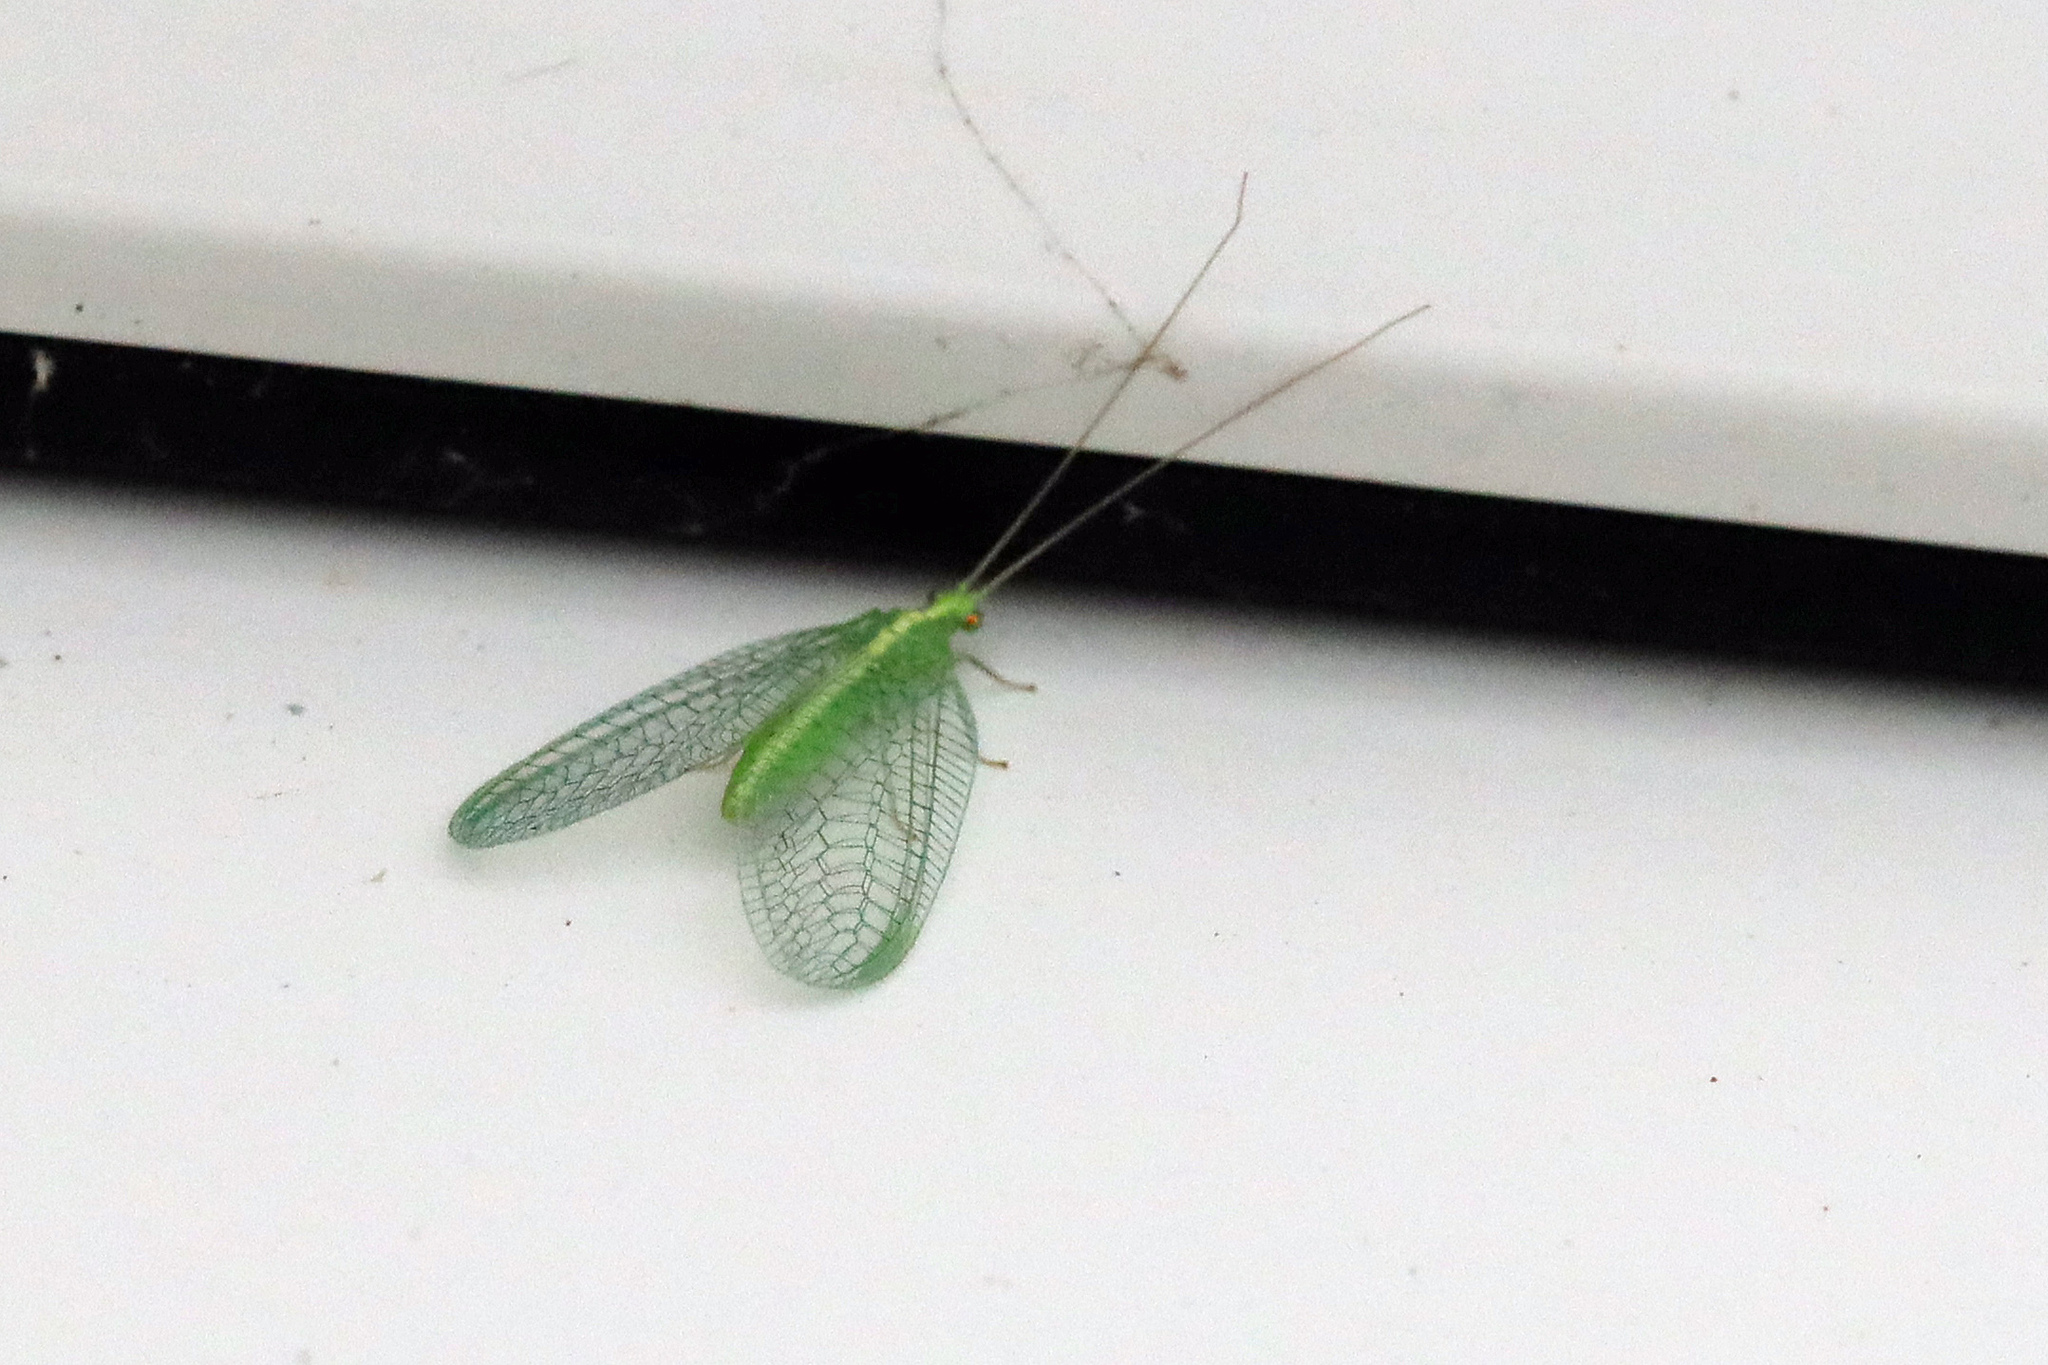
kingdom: Animalia
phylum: Arthropoda
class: Insecta
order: Neuroptera
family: Chrysopidae
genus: Chrysoperla
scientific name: Chrysoperla
